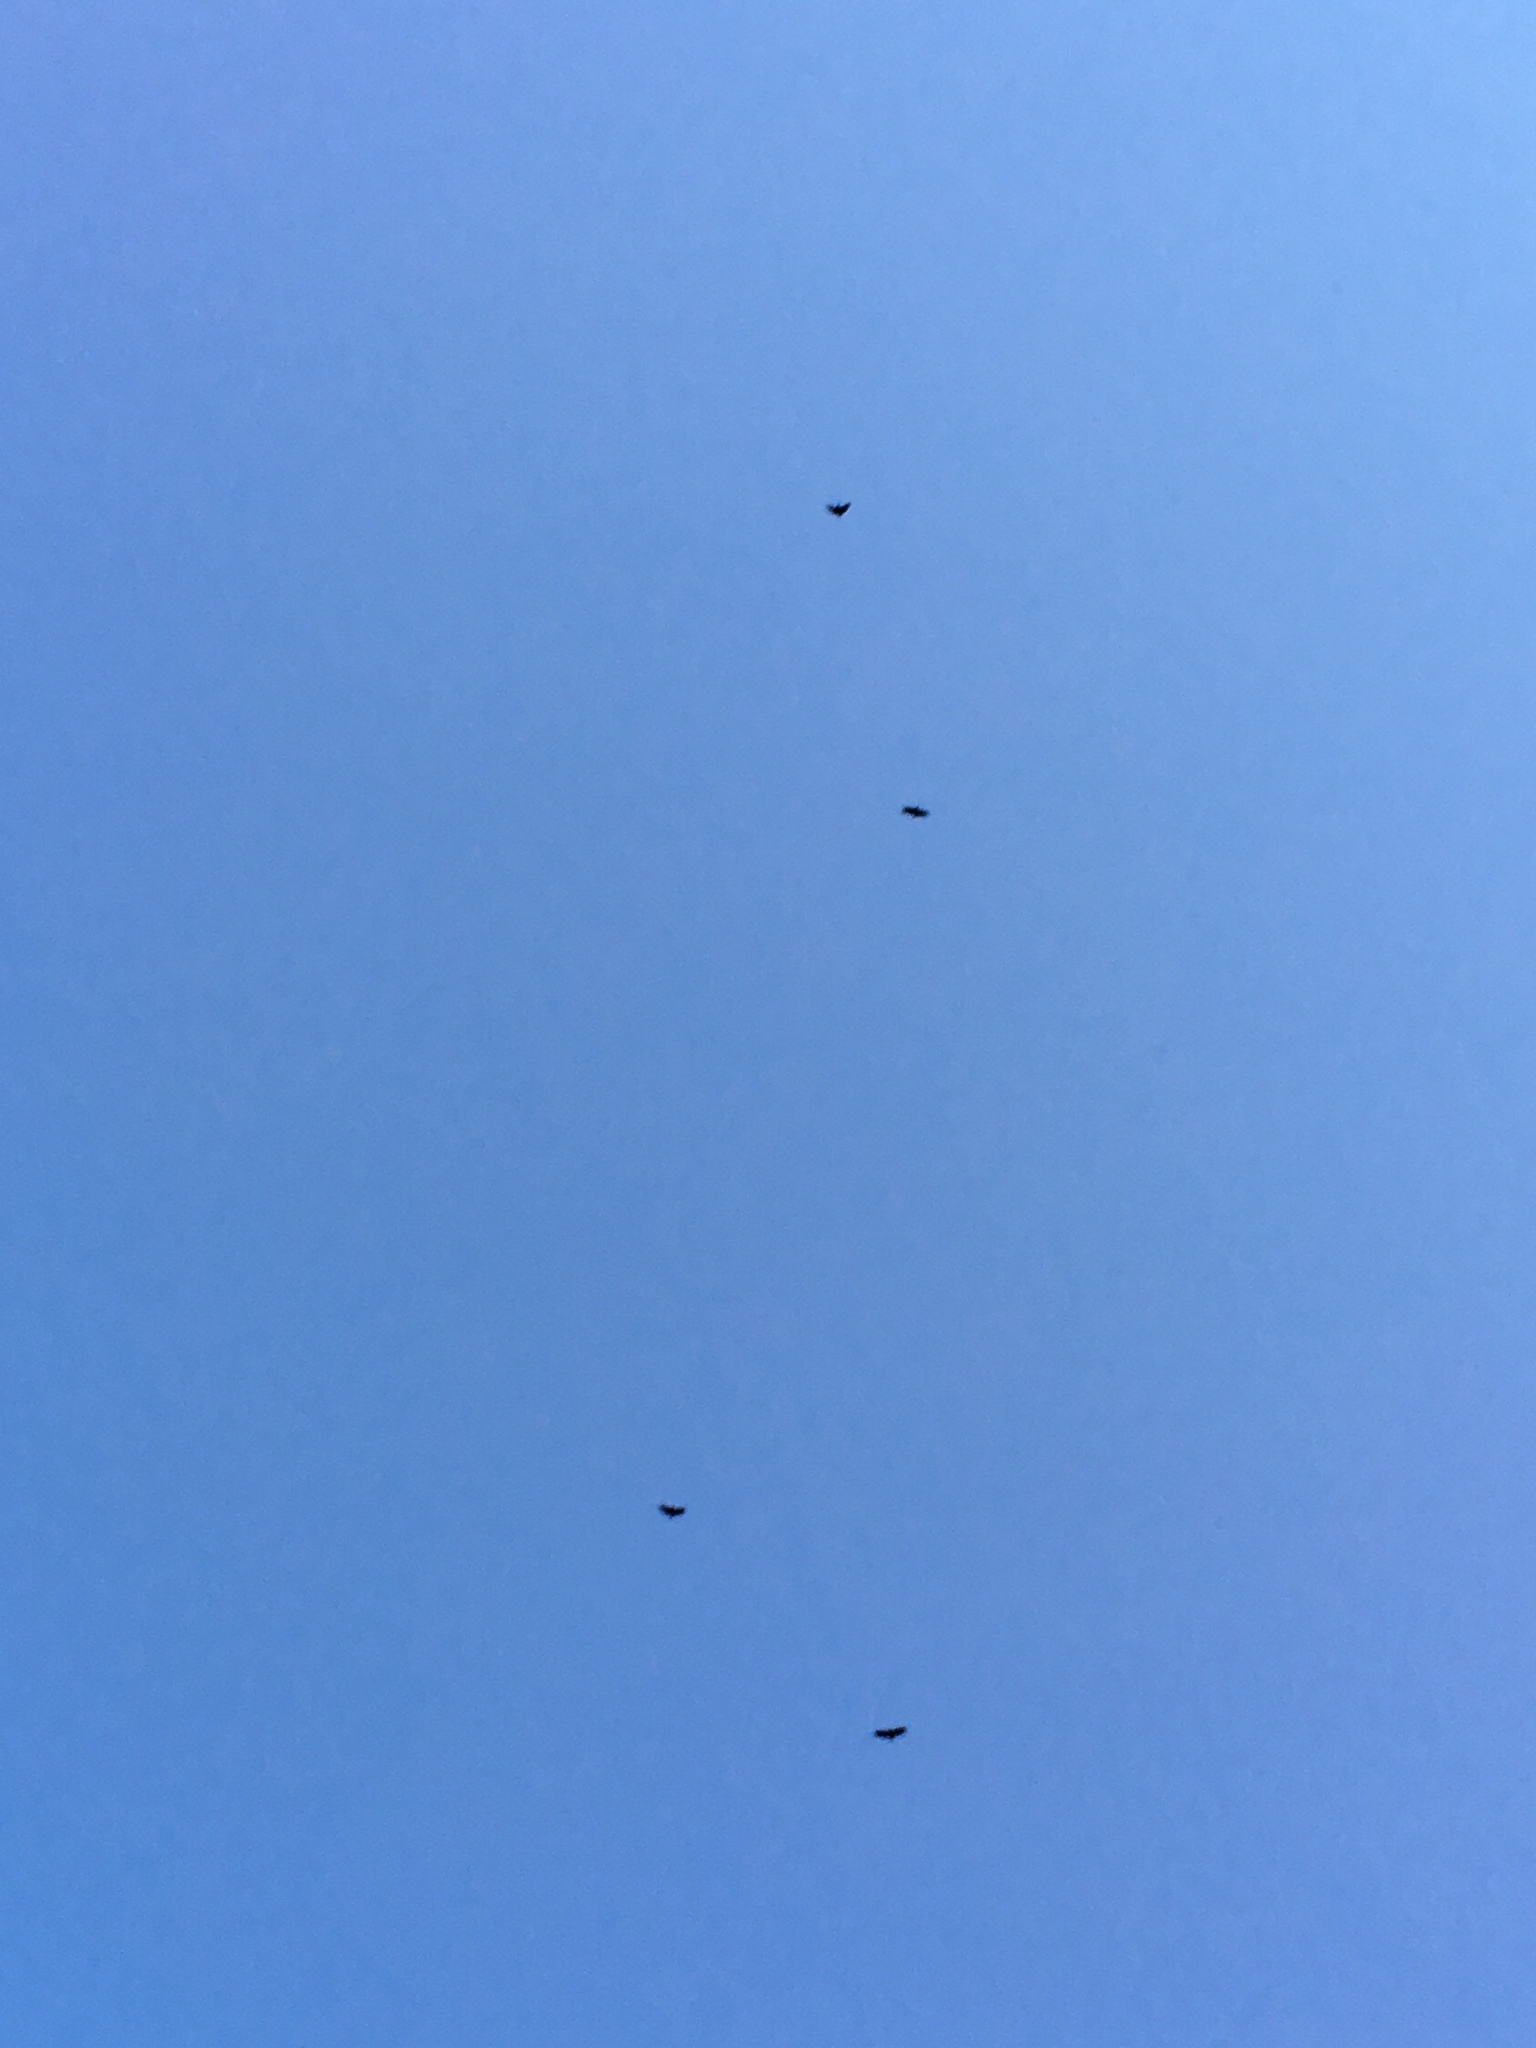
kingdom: Animalia
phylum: Chordata
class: Aves
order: Accipitriformes
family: Cathartidae
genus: Coragyps
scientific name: Coragyps atratus
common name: Black vulture
